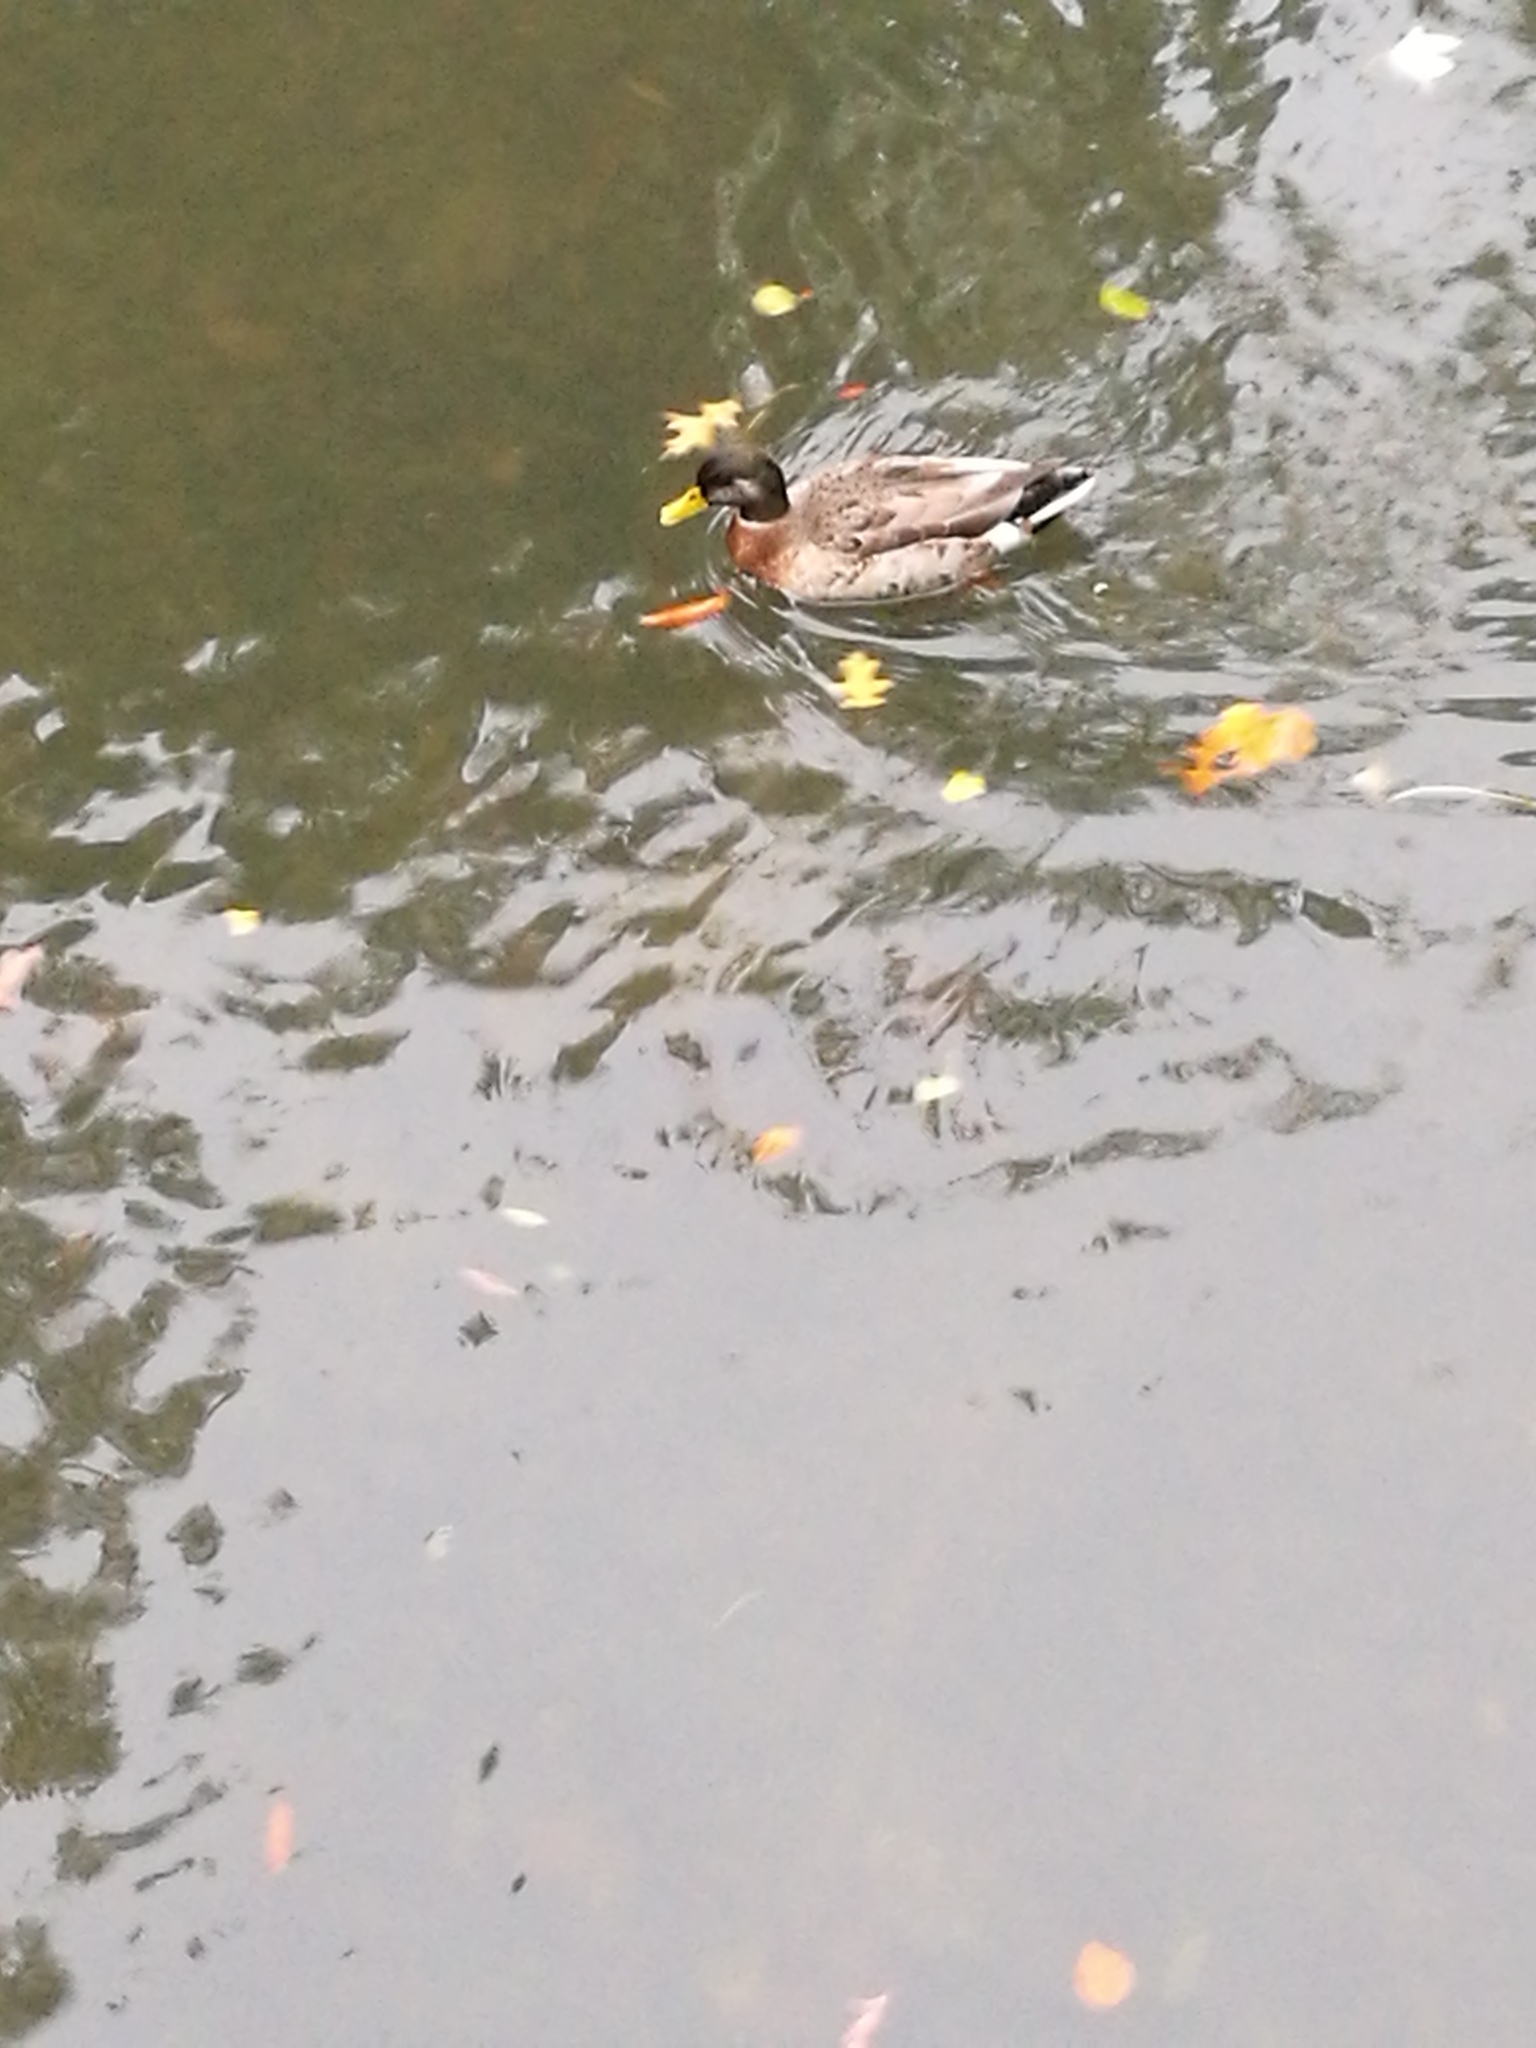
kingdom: Animalia
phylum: Chordata
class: Aves
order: Anseriformes
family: Anatidae
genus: Anas
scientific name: Anas platyrhynchos
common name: Mallard
